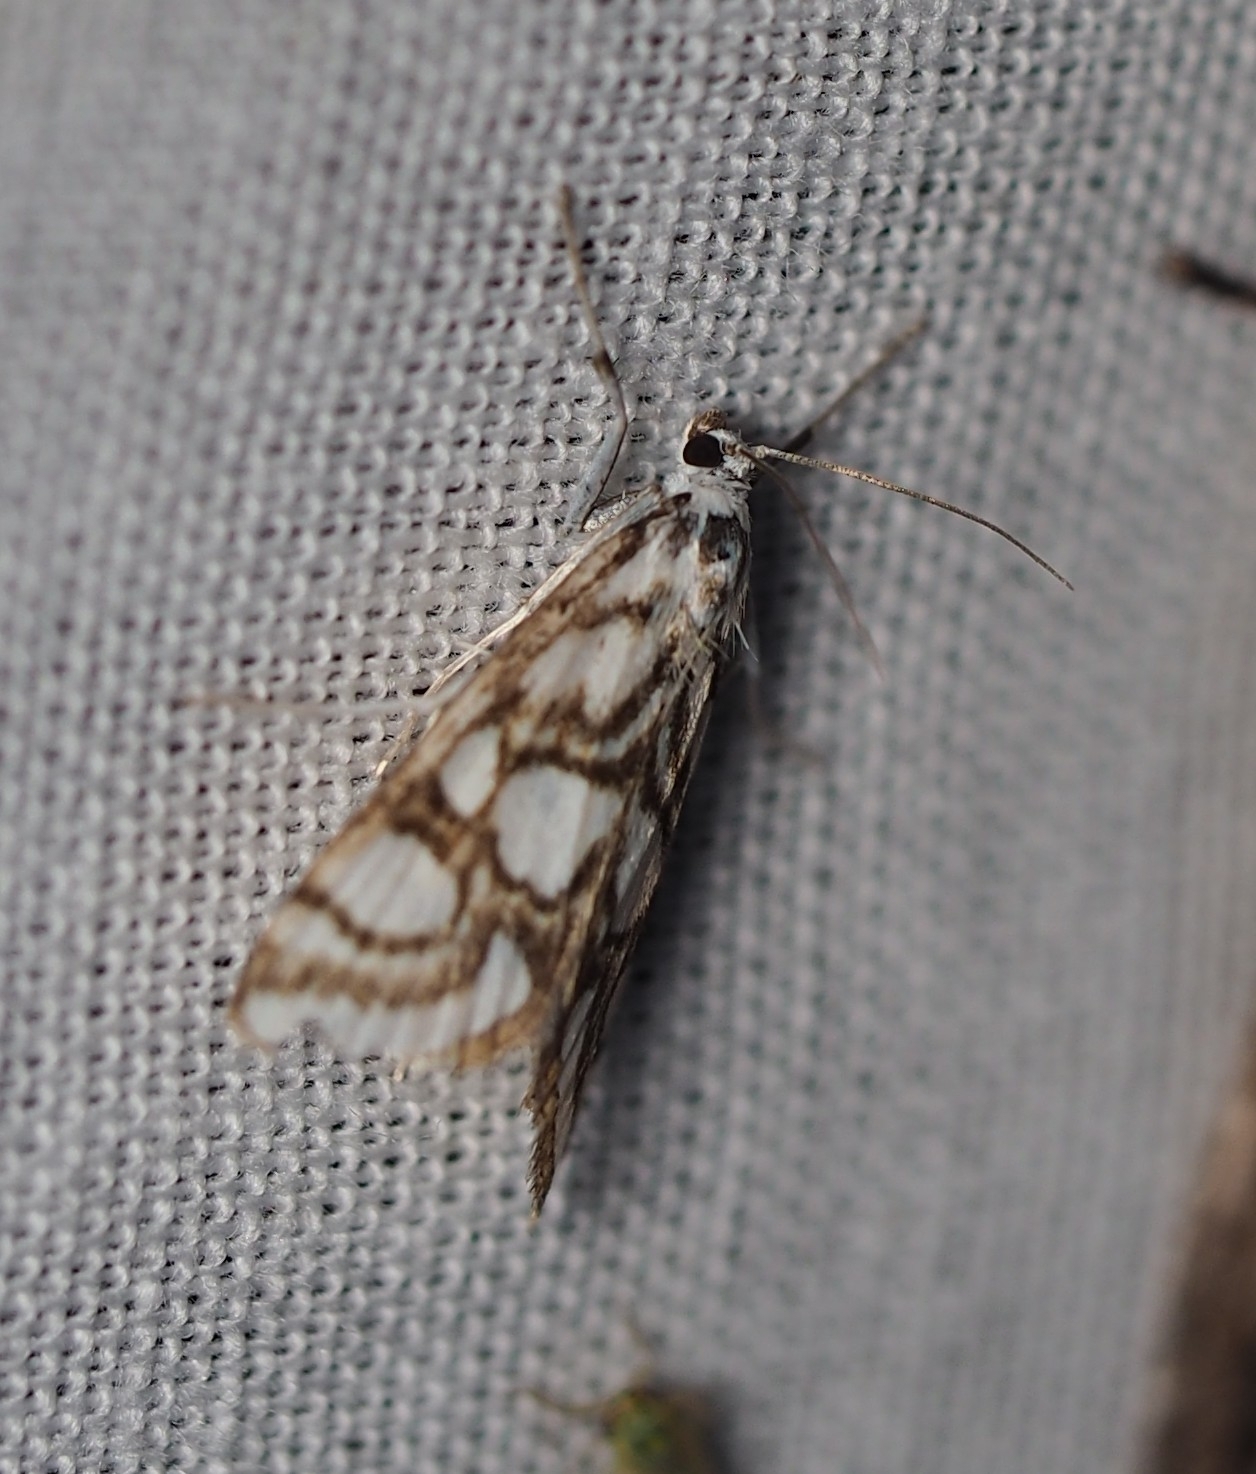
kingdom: Animalia
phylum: Arthropoda
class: Insecta
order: Lepidoptera
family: Crambidae
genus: Nymphula
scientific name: Nymphula nitidulata
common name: Beautiful china mark
